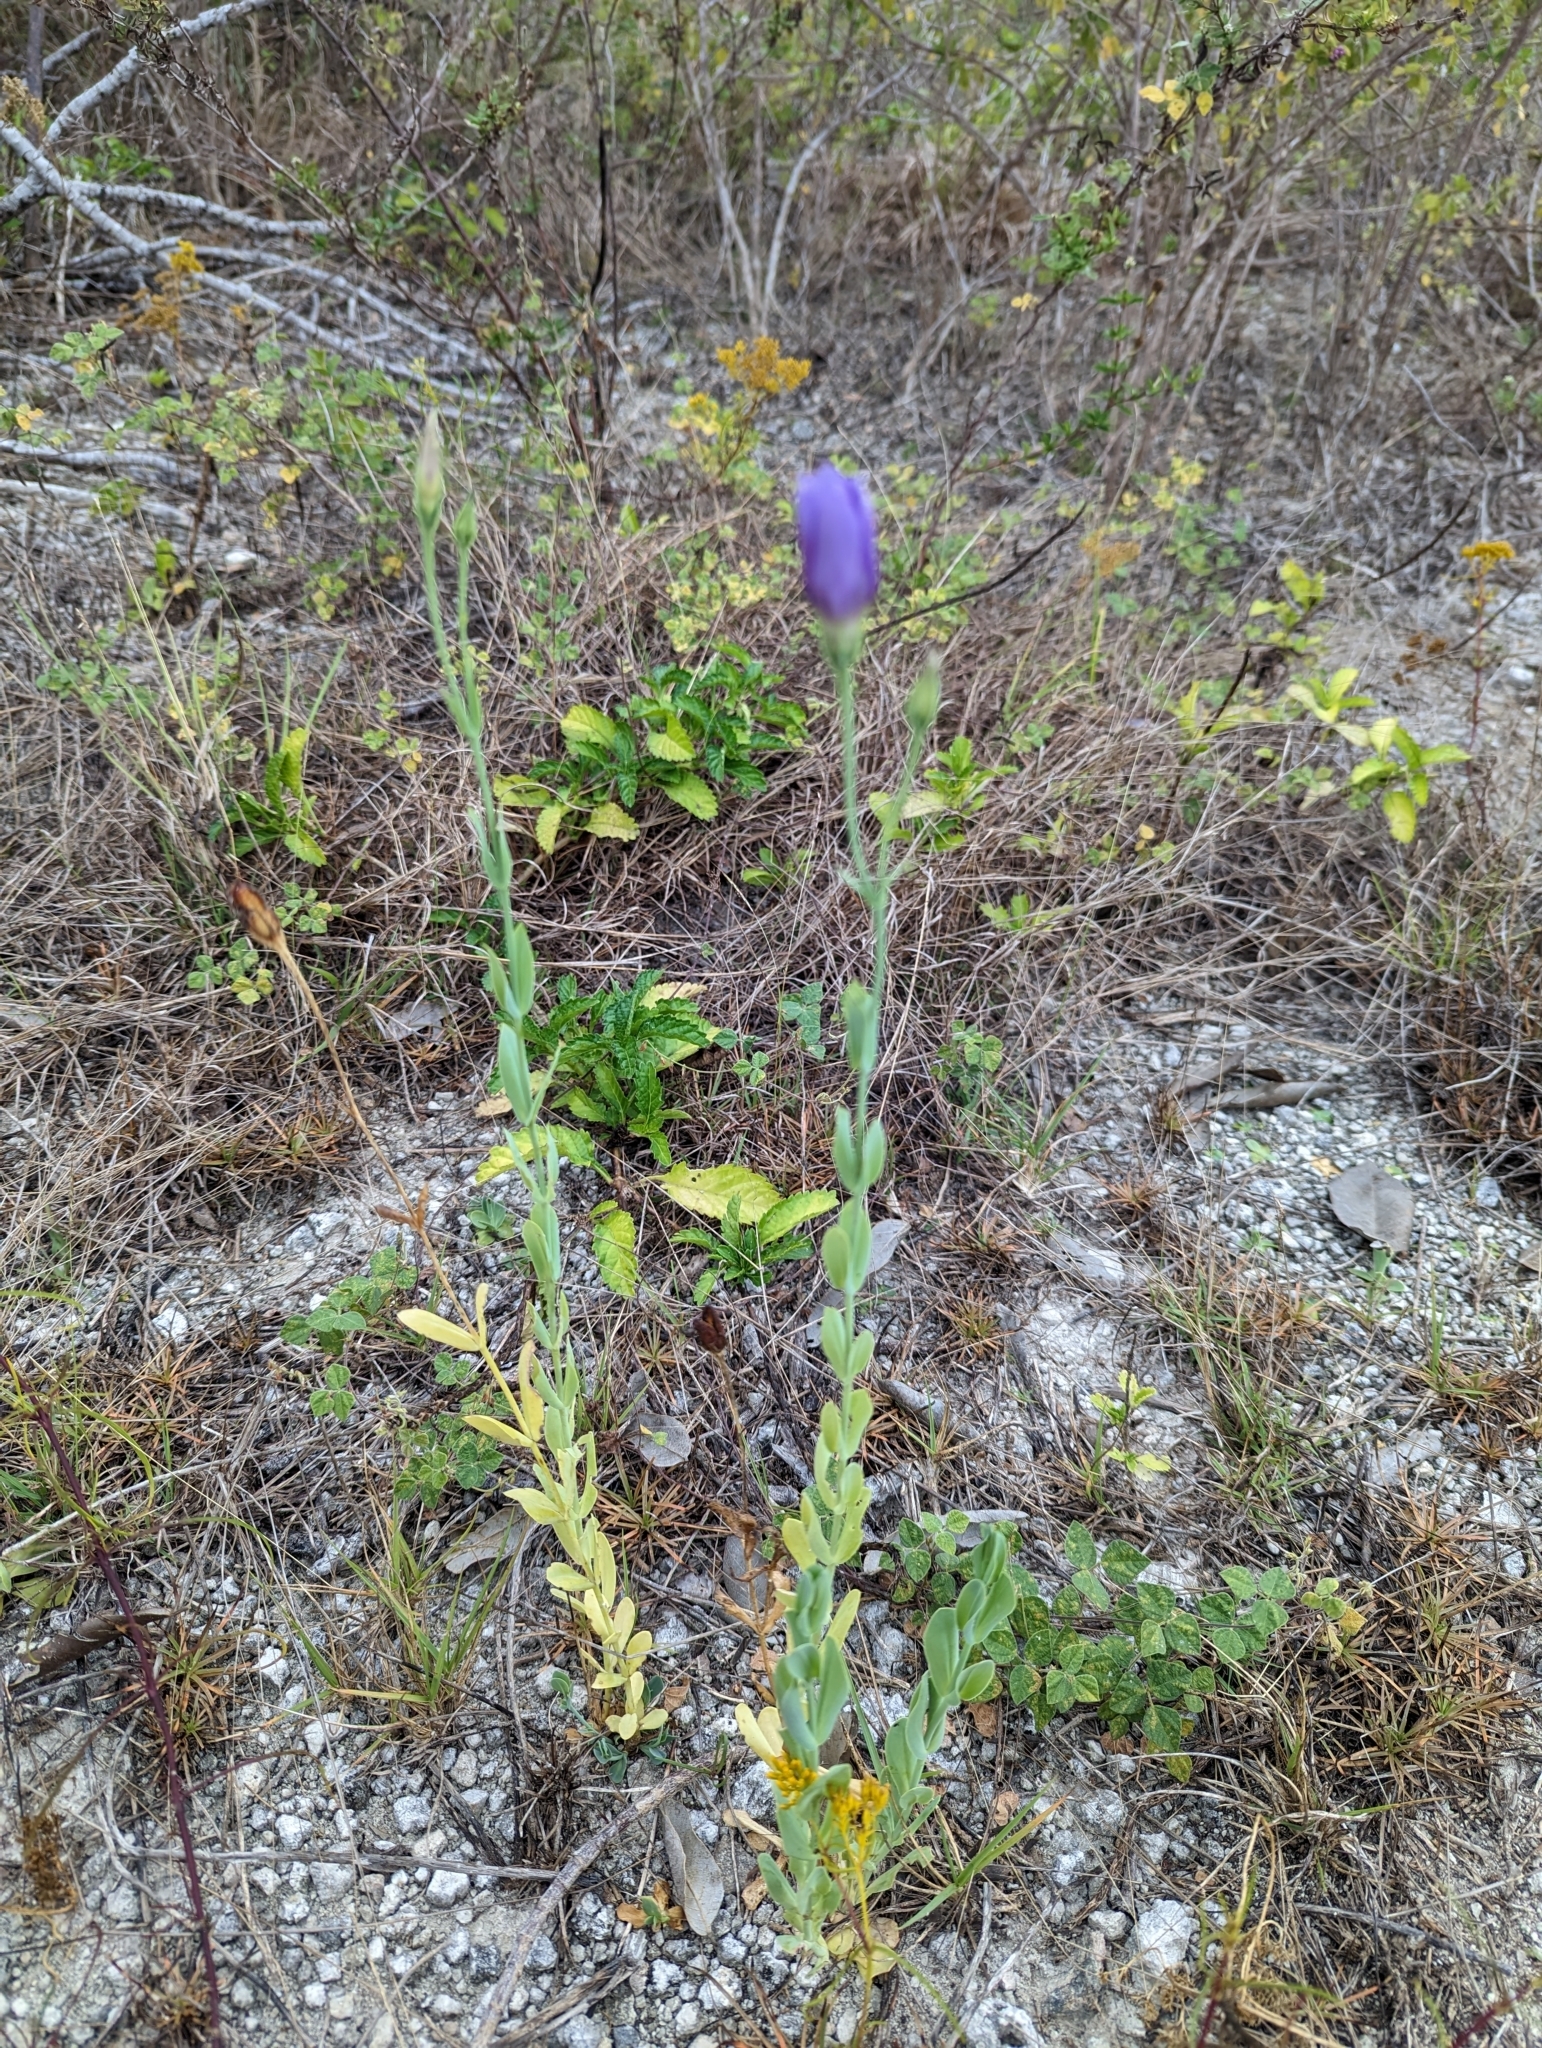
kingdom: Plantae
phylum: Tracheophyta
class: Magnoliopsida
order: Gentianales
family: Gentianaceae
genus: Eustoma
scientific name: Eustoma exaltatum
